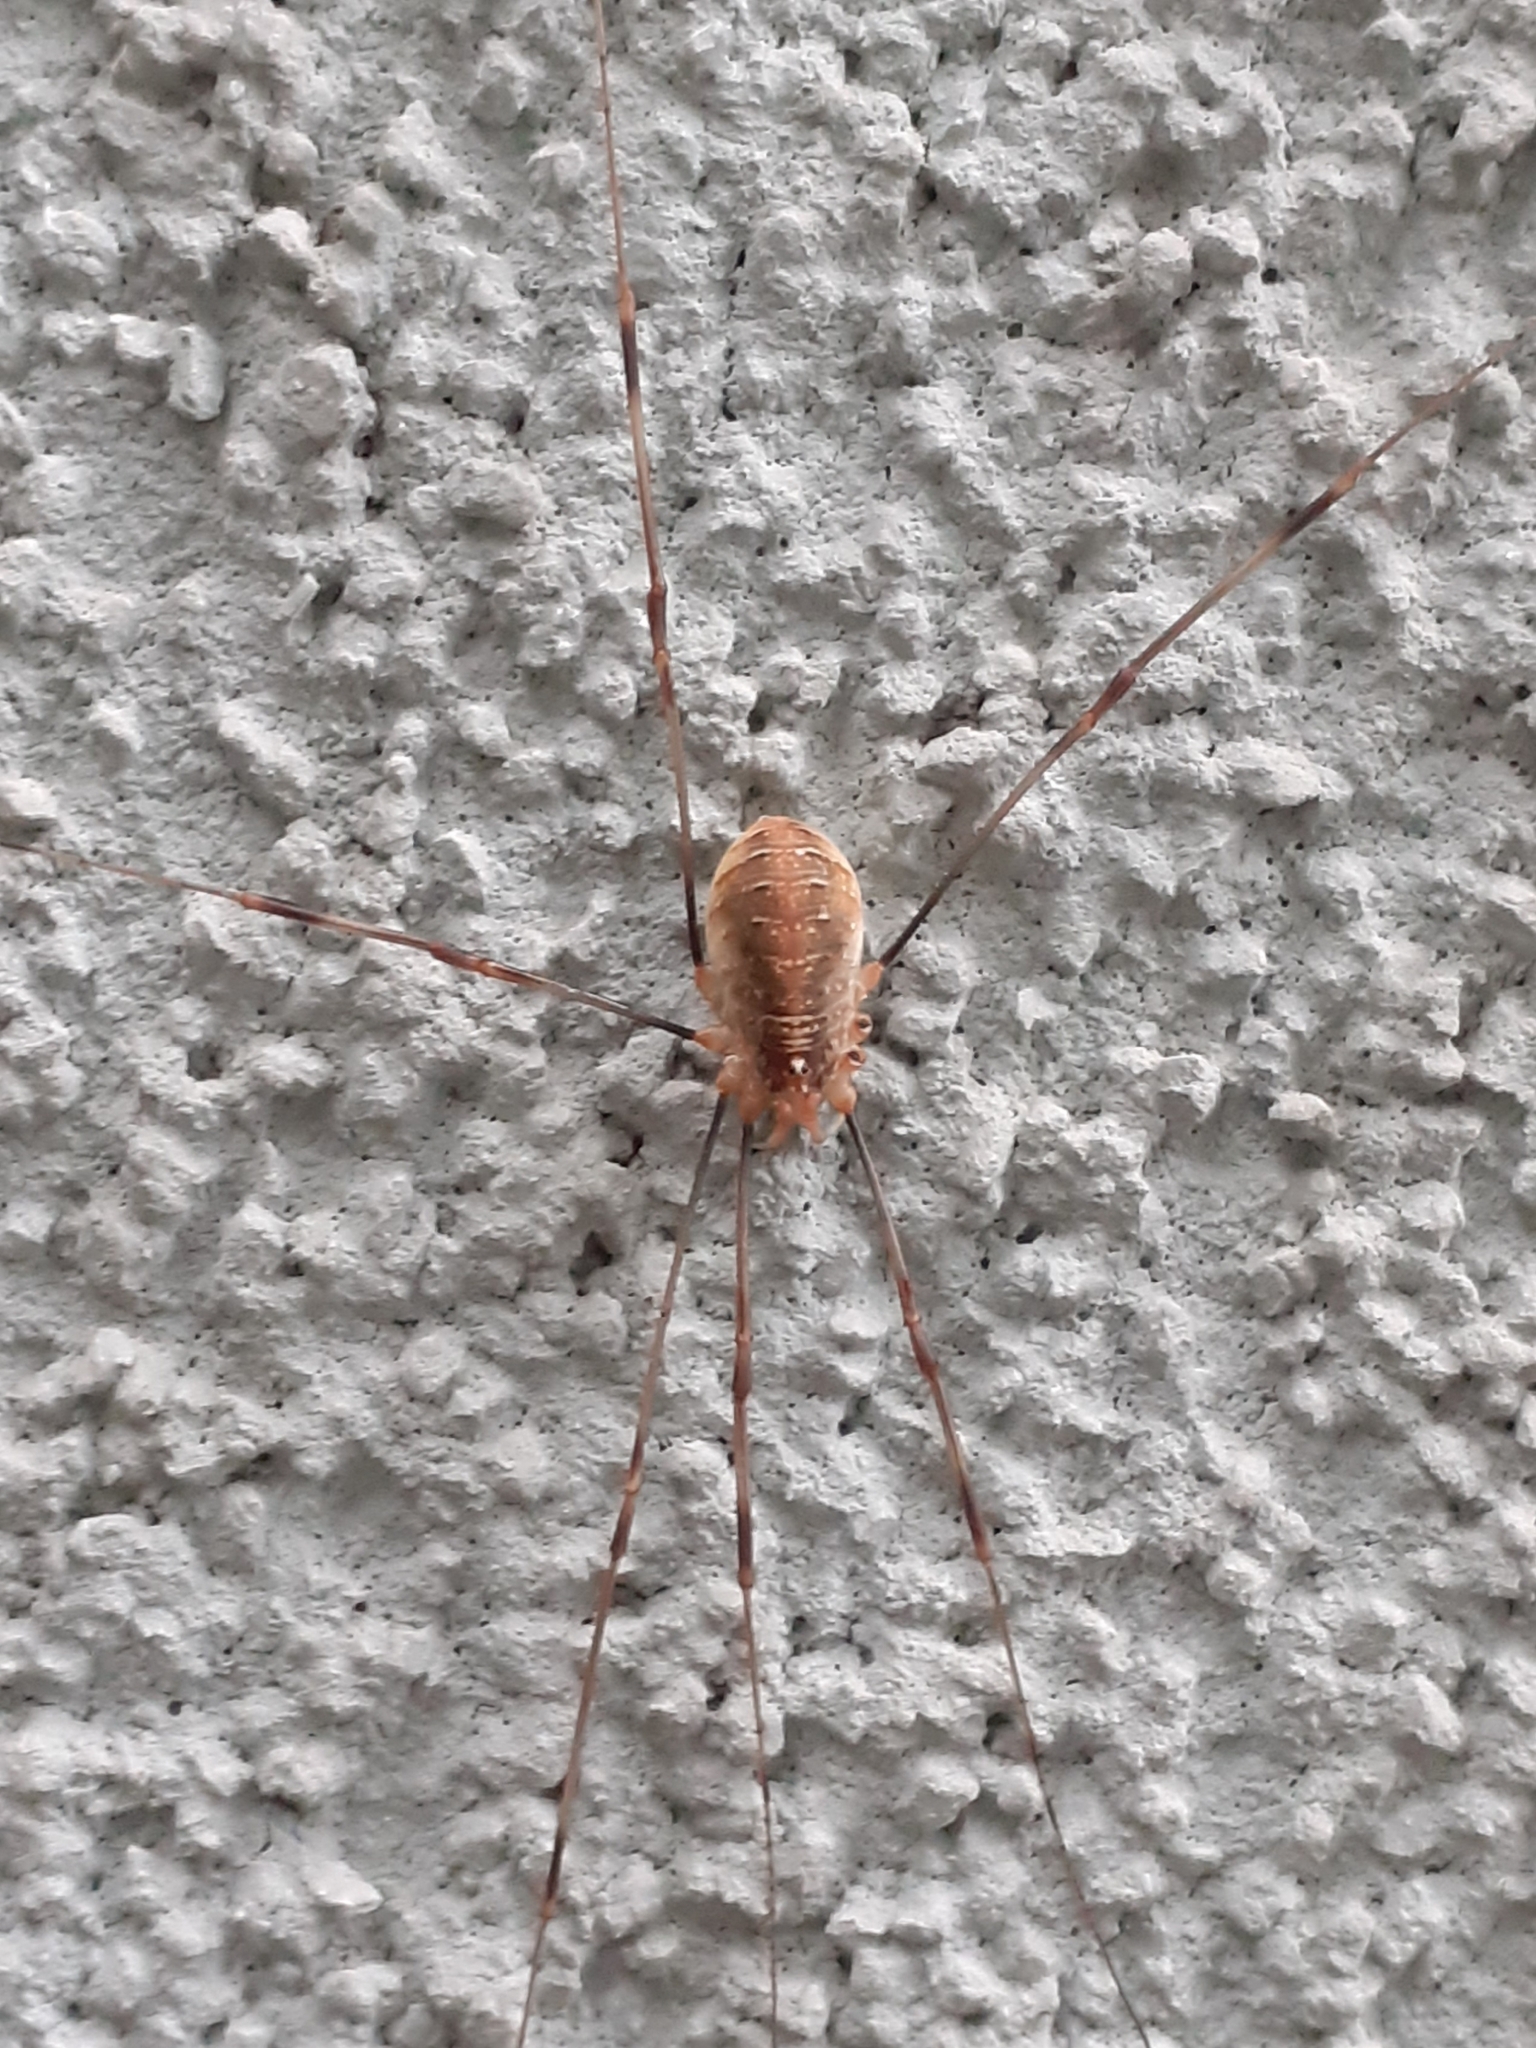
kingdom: Animalia
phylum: Arthropoda
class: Arachnida
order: Opiliones
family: Phalangiidae
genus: Opilio
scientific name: Opilio canestrinii
